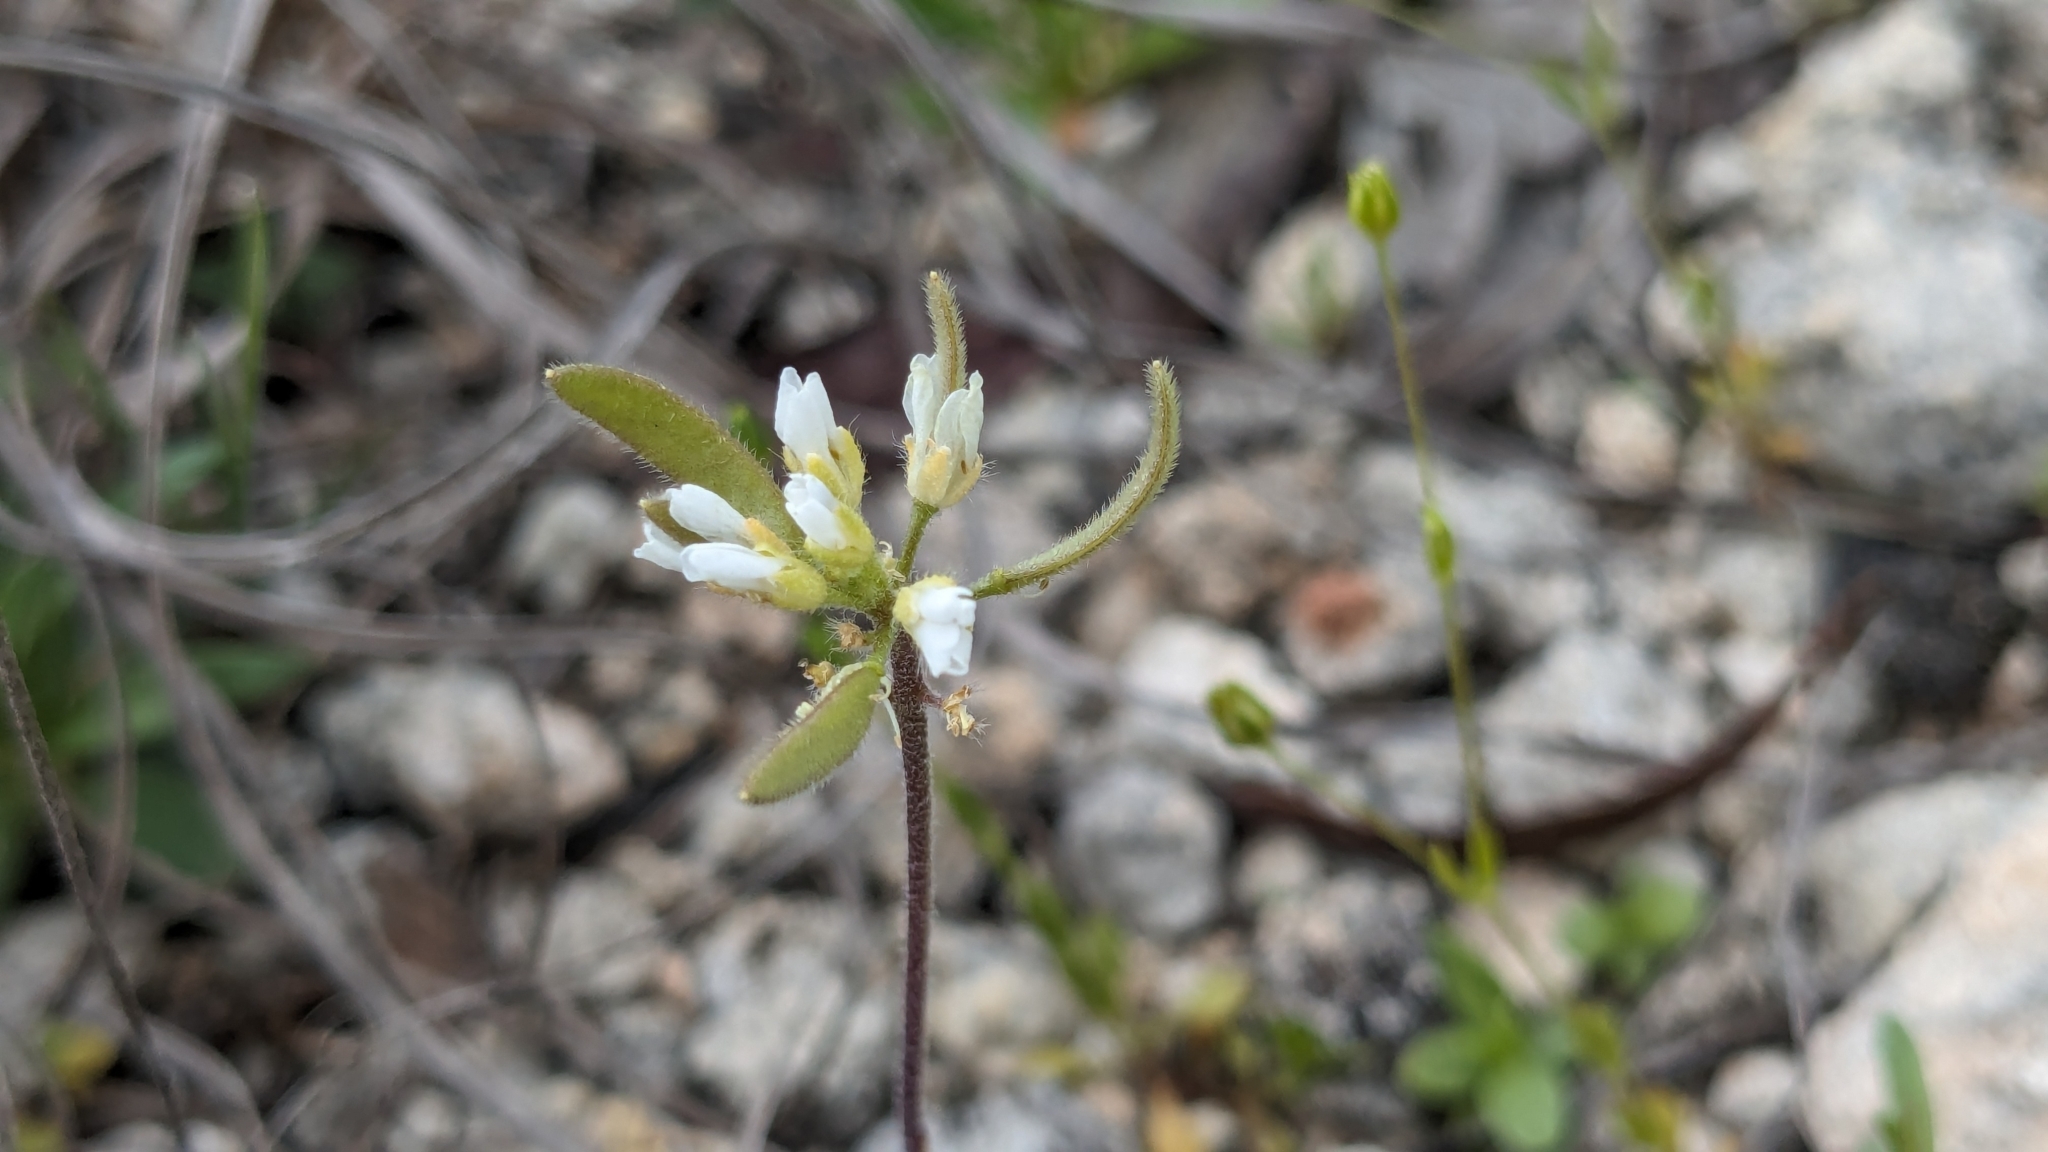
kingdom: Plantae
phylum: Tracheophyta
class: Magnoliopsida
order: Brassicales
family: Brassicaceae
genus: Tomostima
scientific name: Tomostima cuneifolia
